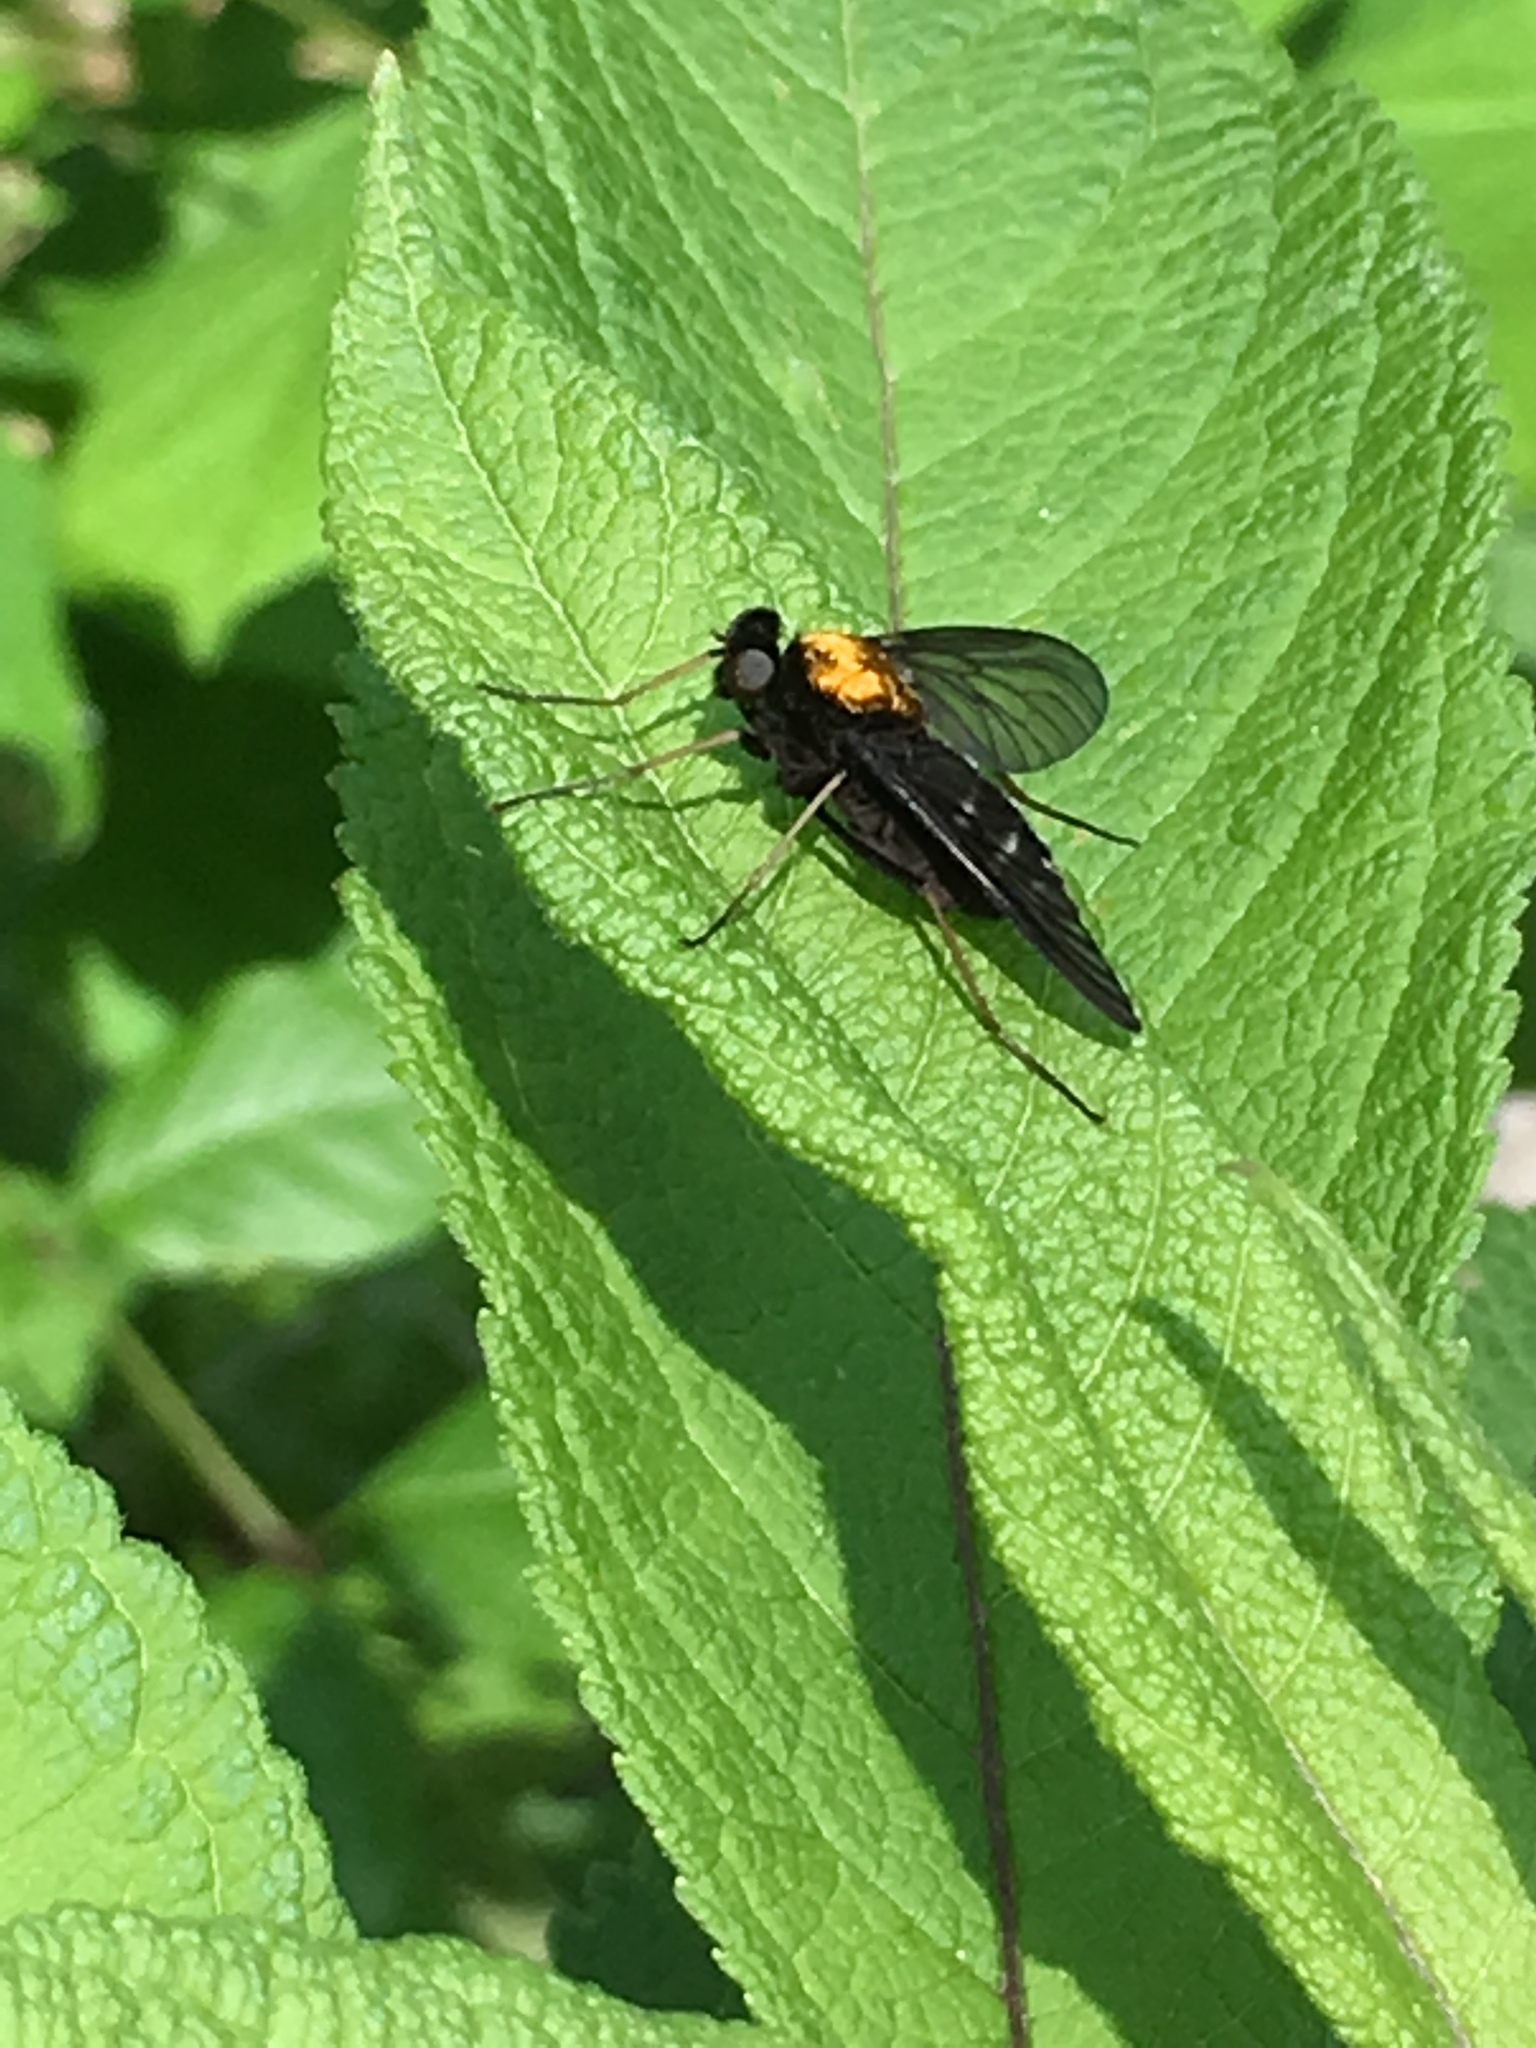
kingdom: Animalia
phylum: Arthropoda
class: Insecta
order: Diptera
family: Rhagionidae
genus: Chrysopilus
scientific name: Chrysopilus thoracicus
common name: Golden-backed snipe fly
